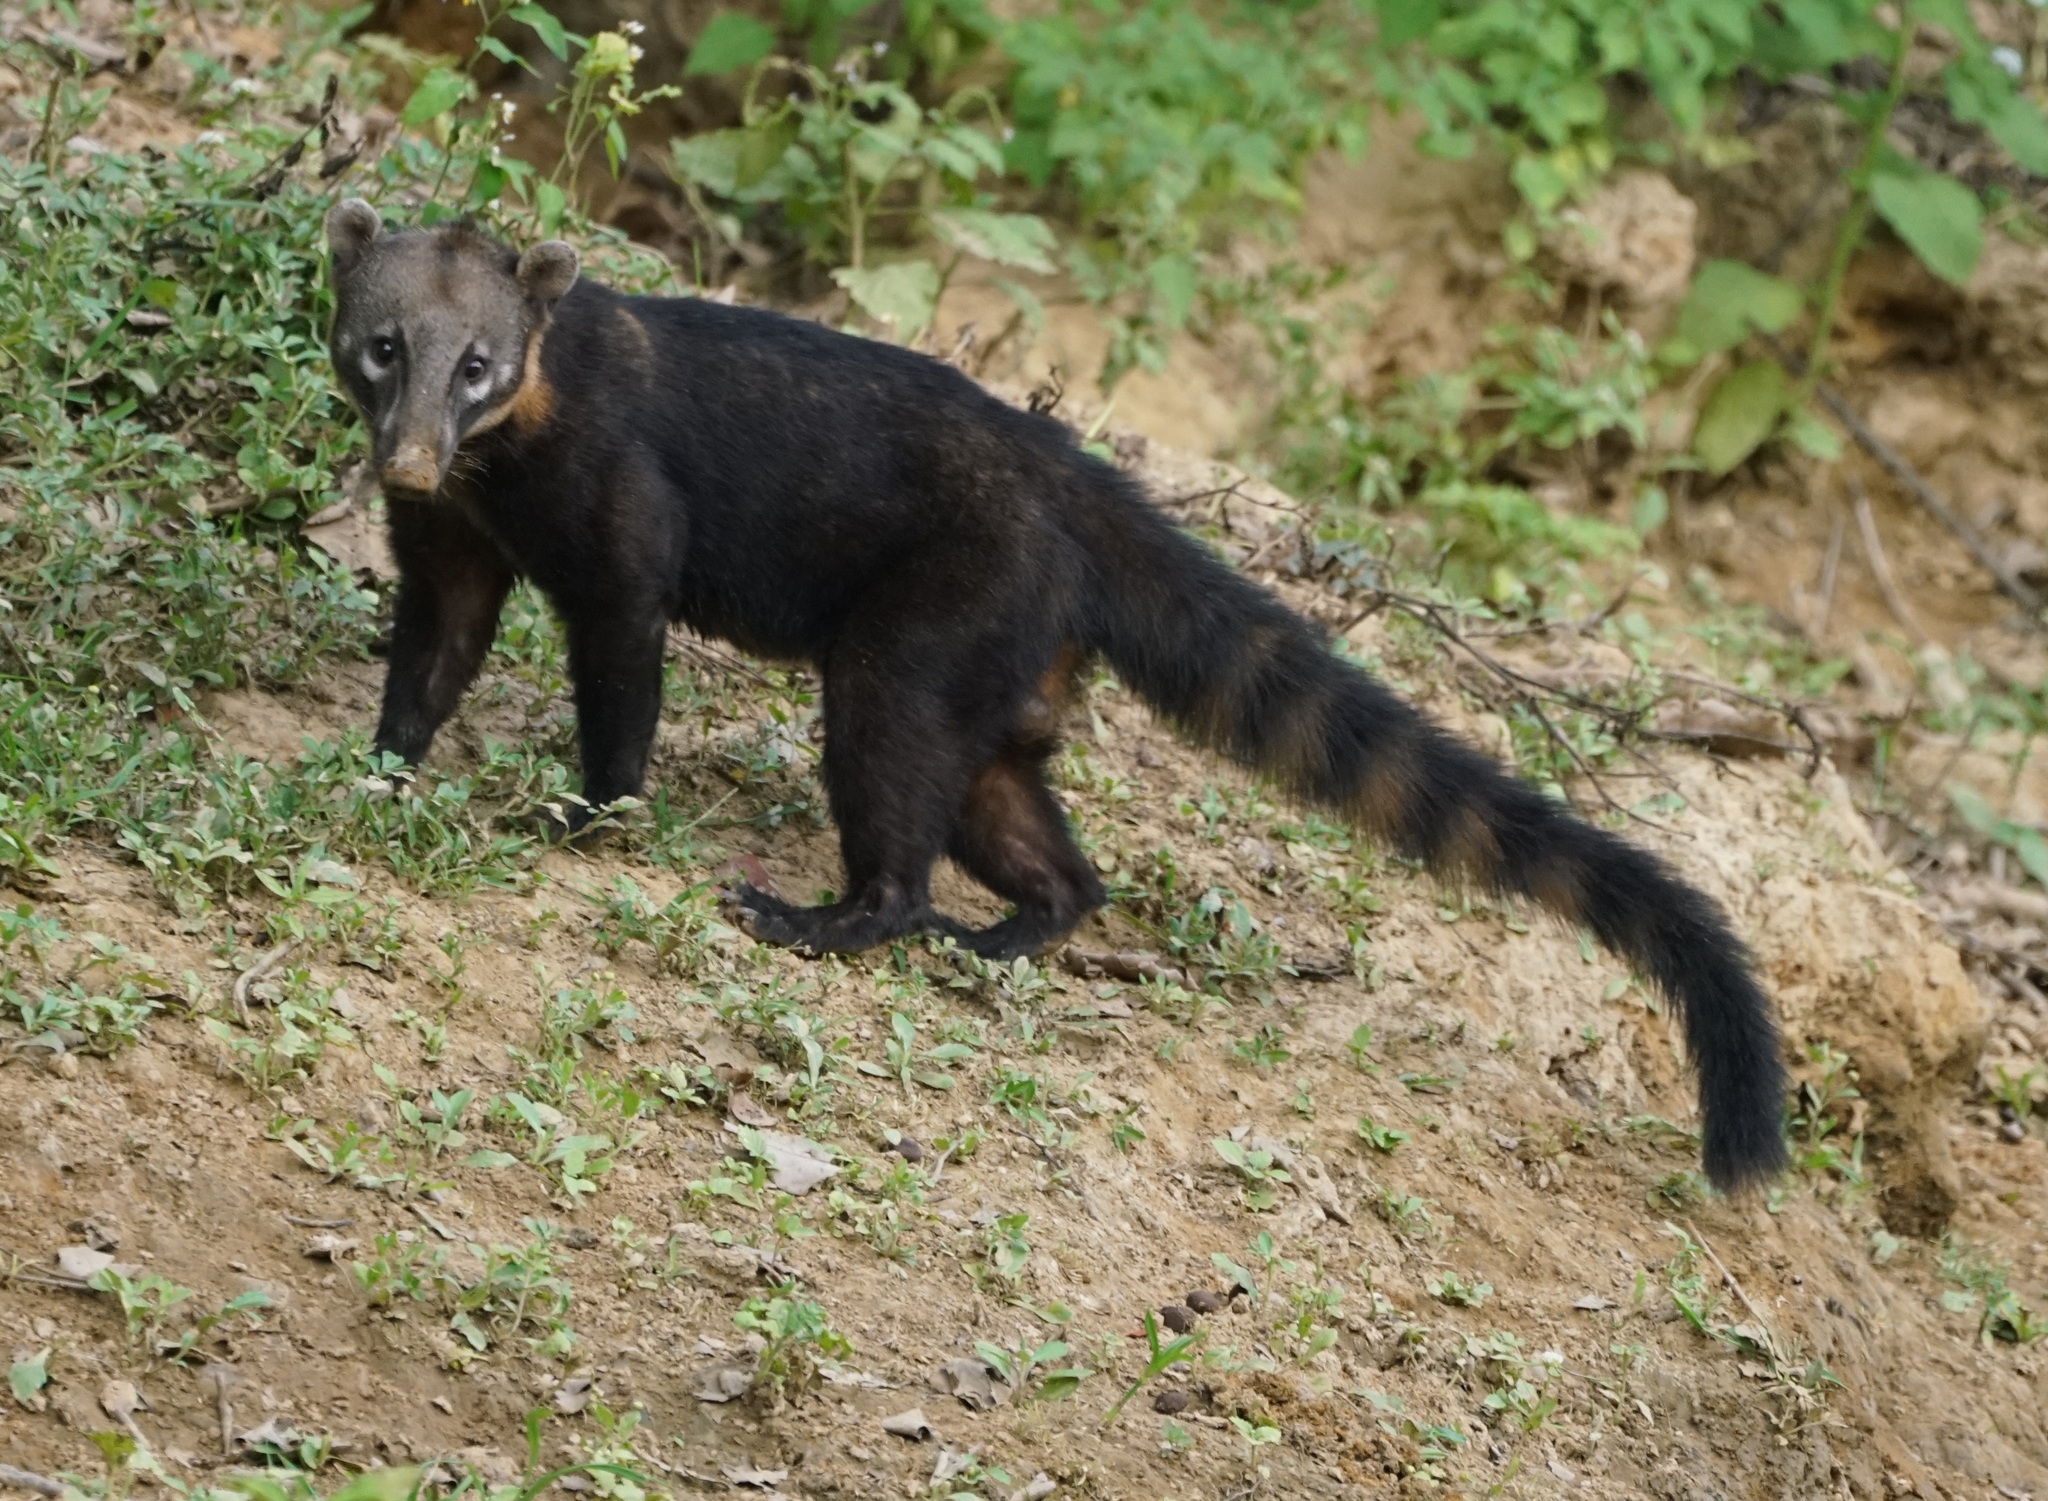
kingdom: Animalia
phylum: Chordata
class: Mammalia
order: Carnivora
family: Procyonidae
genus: Nasua
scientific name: Nasua nasua
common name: South american coati
